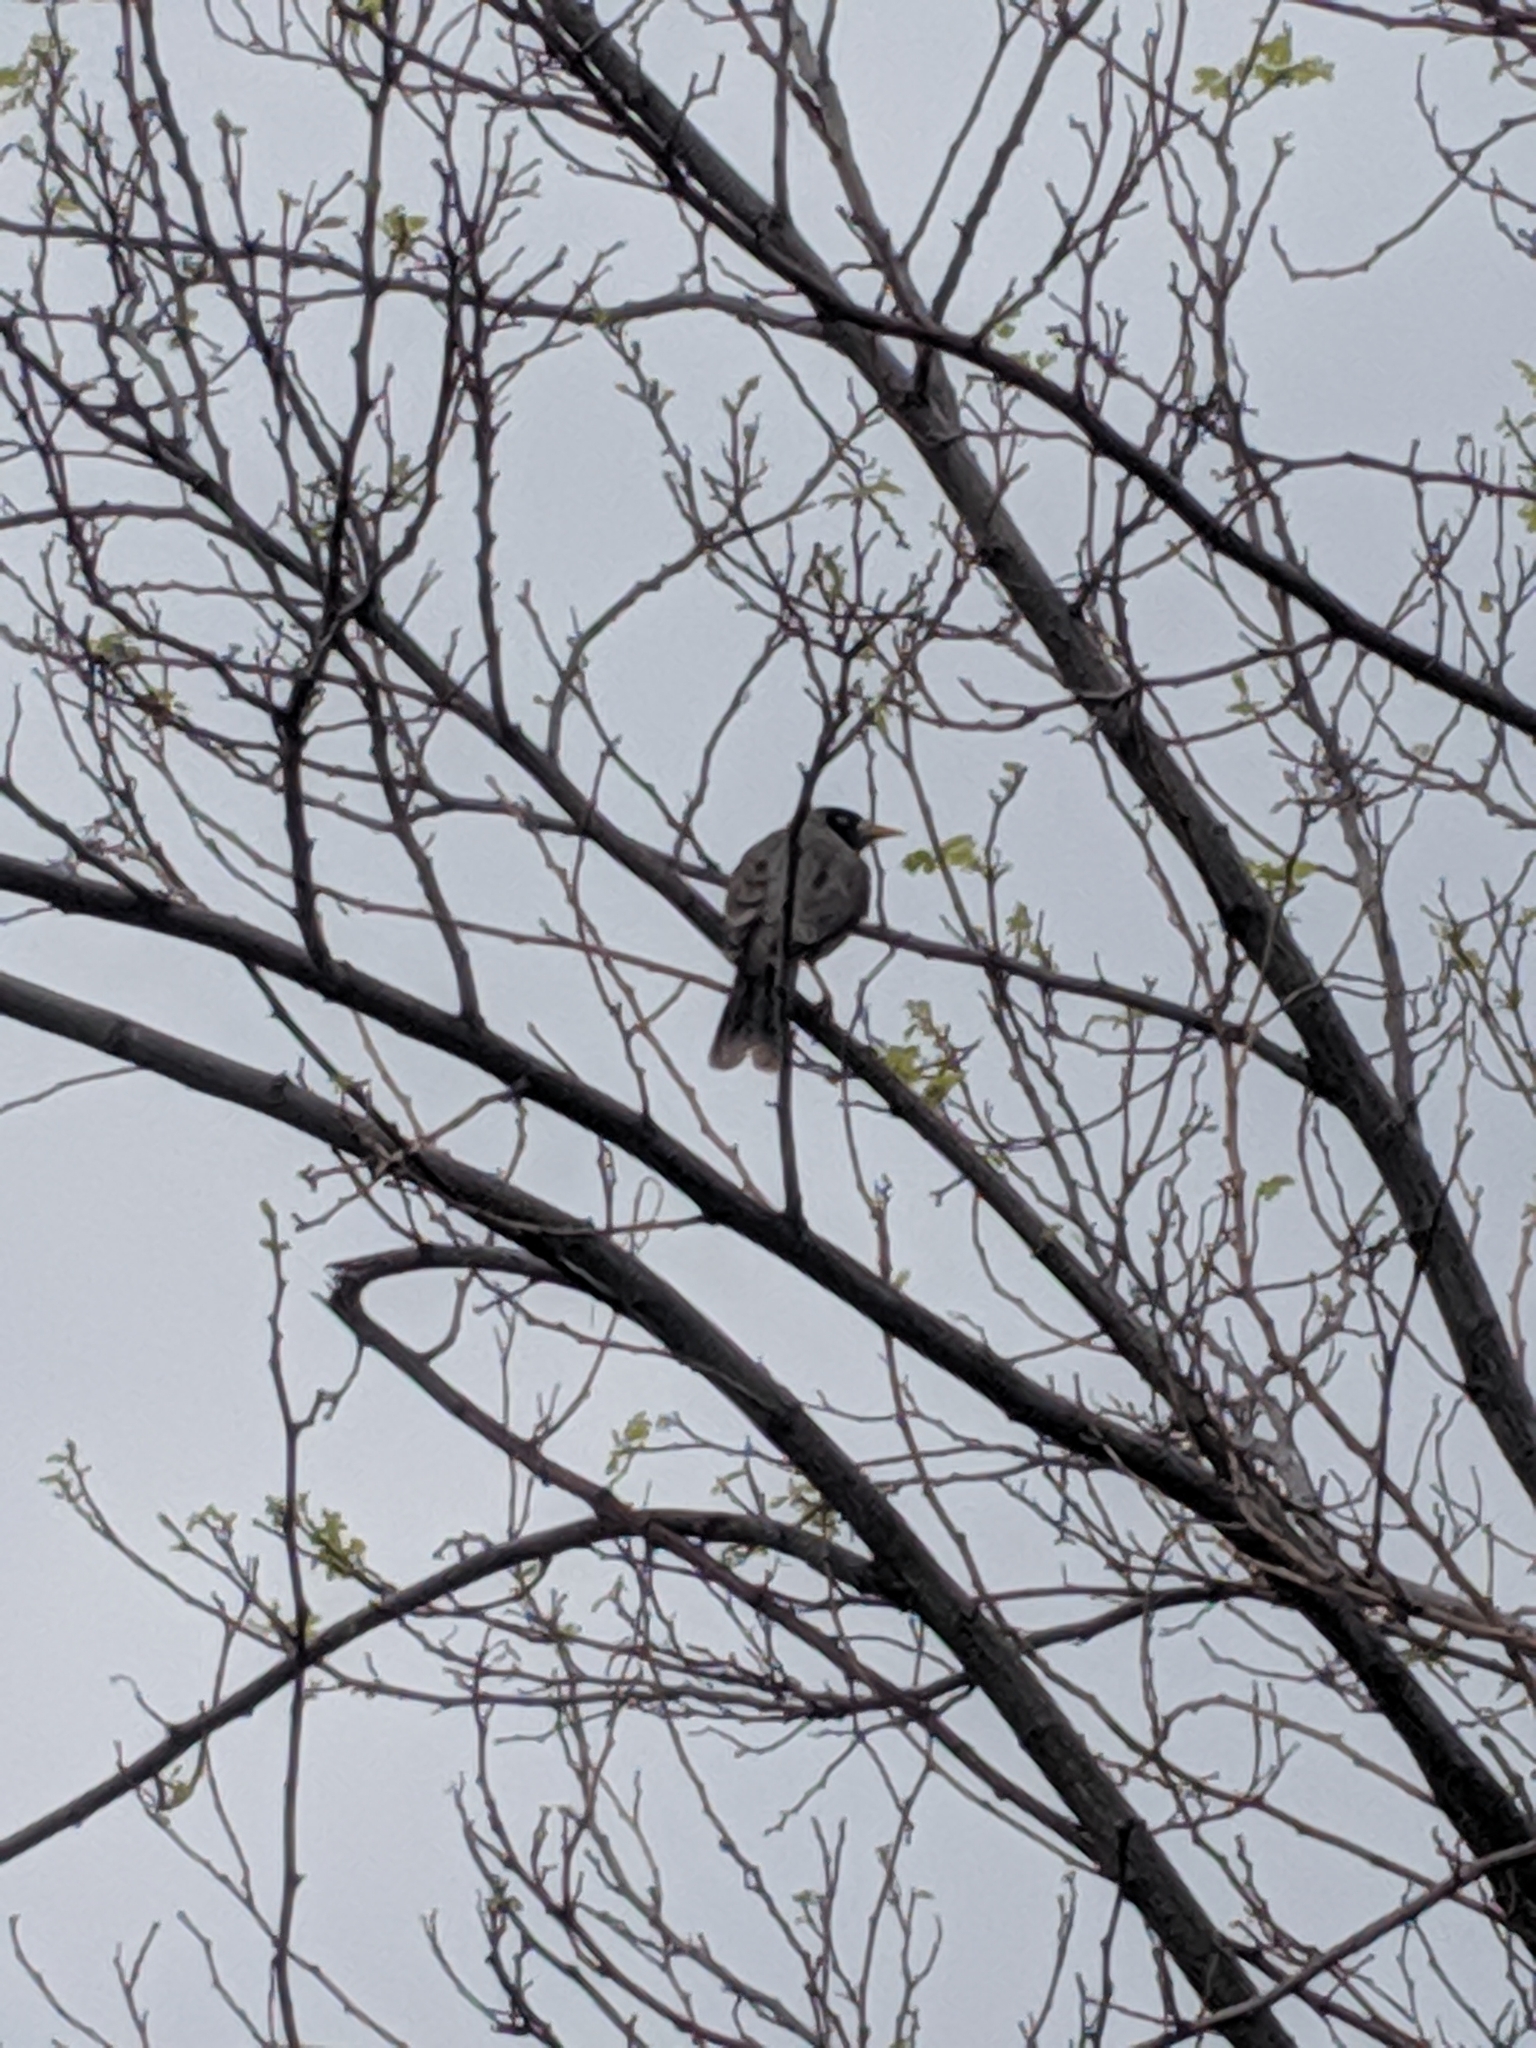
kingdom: Animalia
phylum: Chordata
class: Aves
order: Passeriformes
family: Meliphagidae
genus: Manorina
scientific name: Manorina melanocephala
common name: Noisy miner
